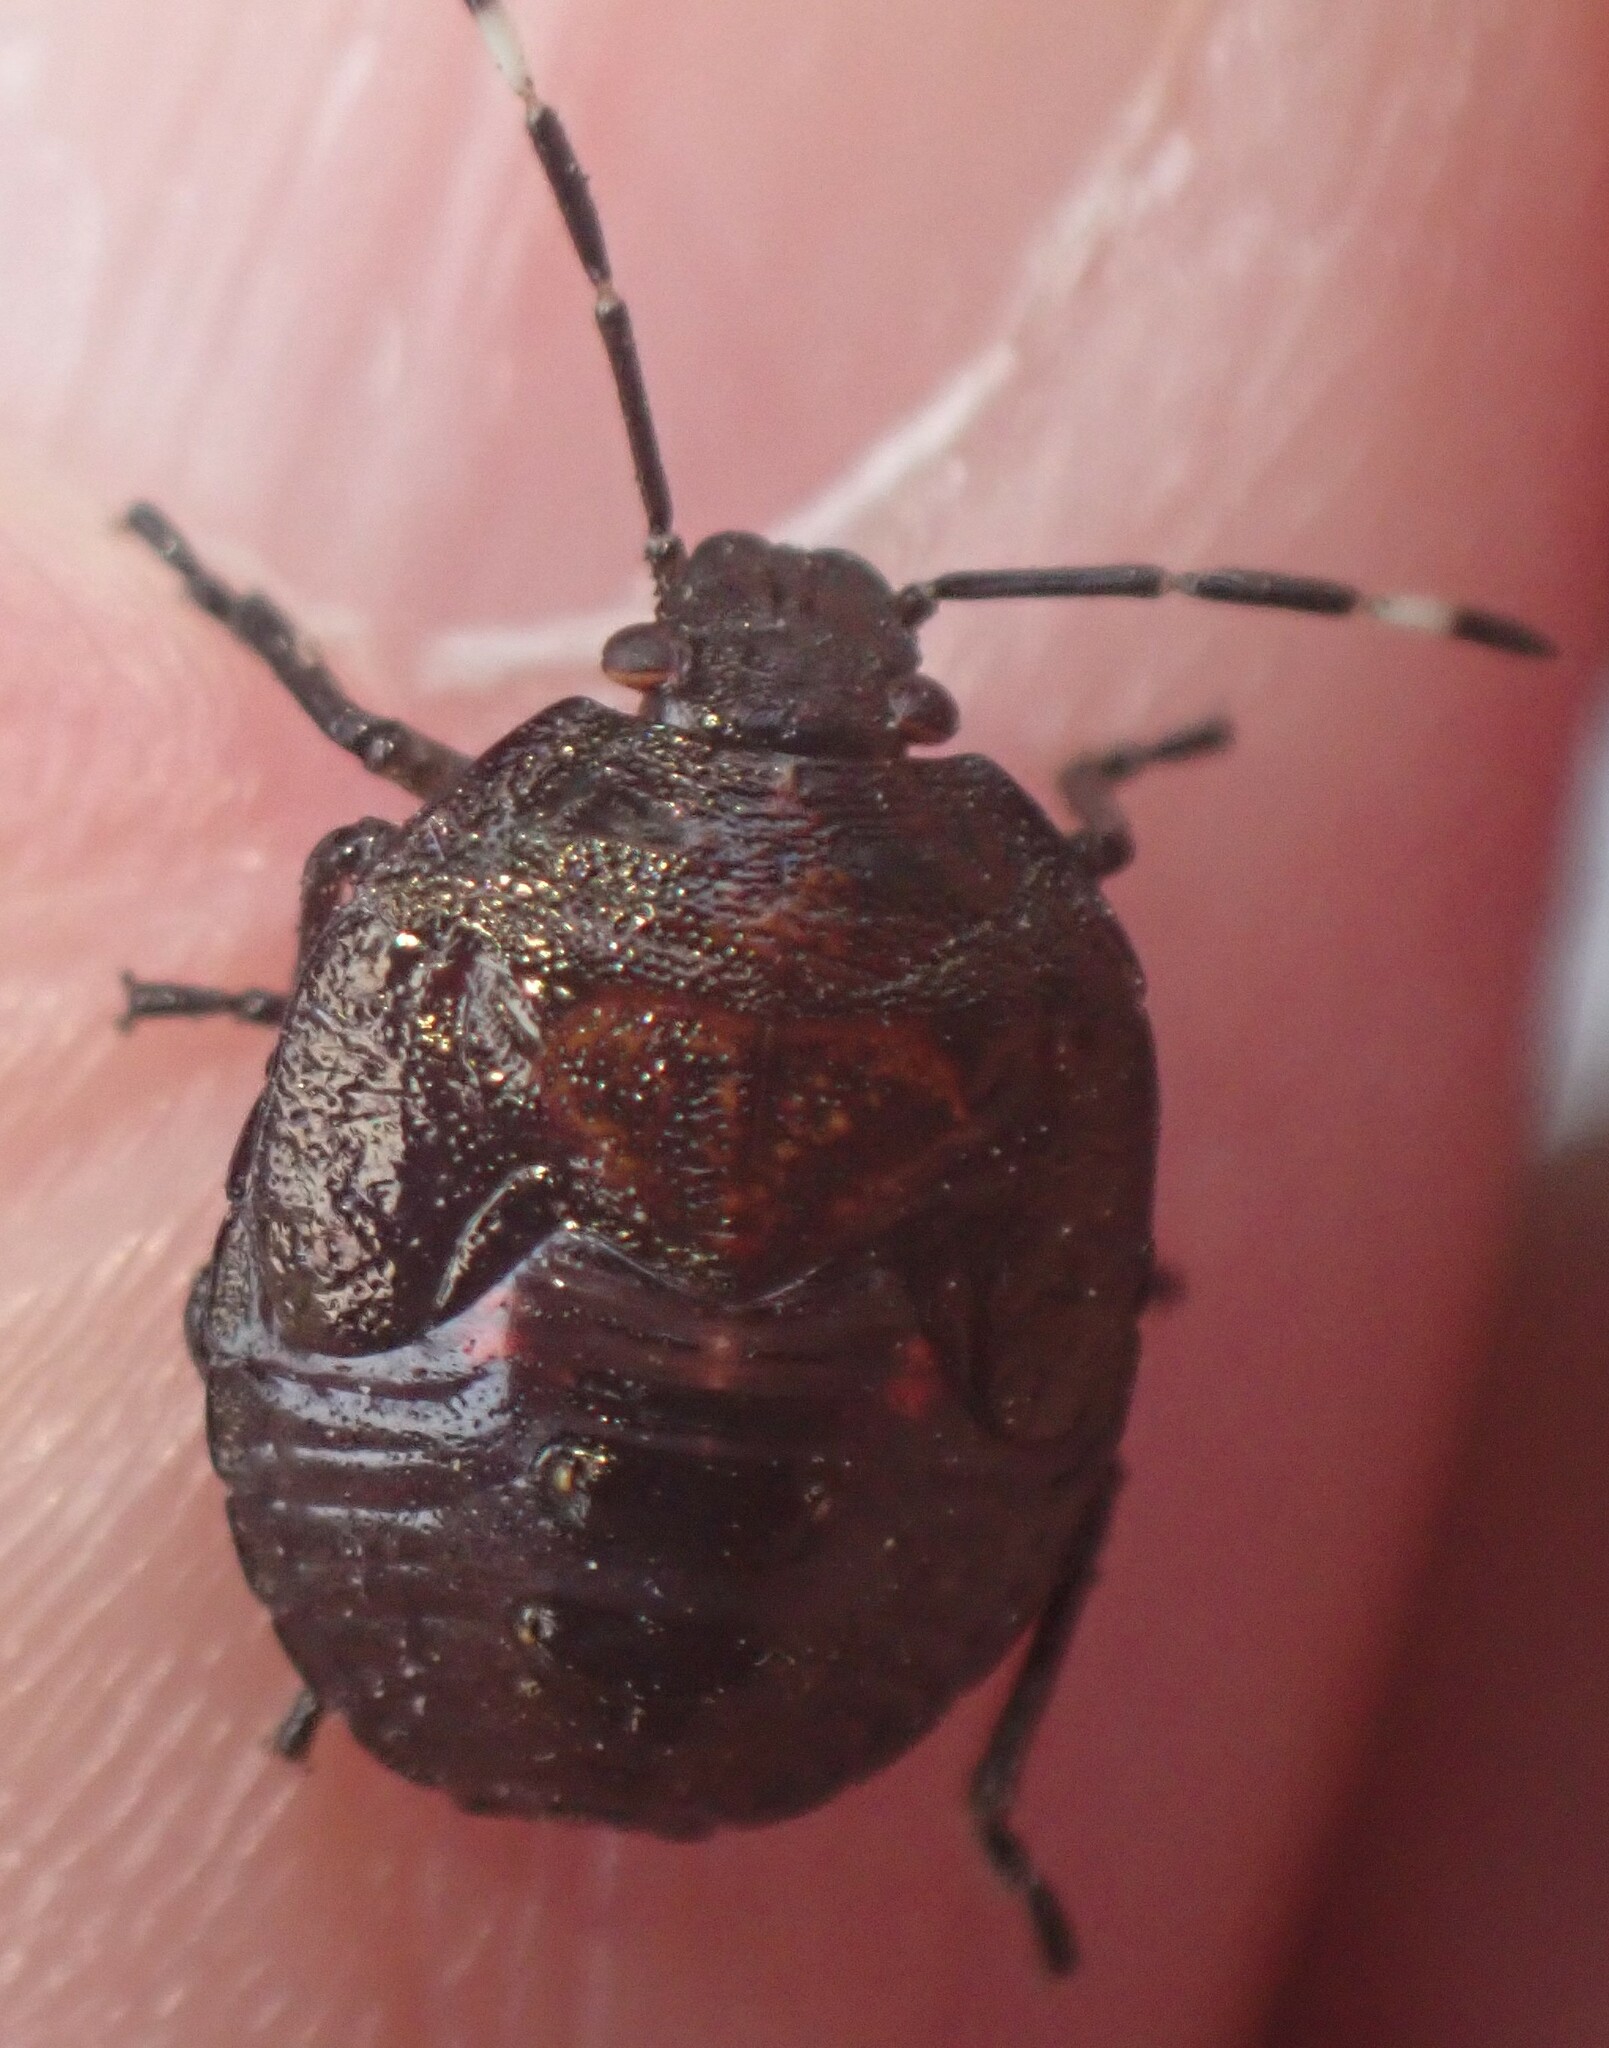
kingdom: Animalia
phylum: Arthropoda
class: Insecta
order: Hemiptera
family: Pentatomidae
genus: Monteithiella
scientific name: Monteithiella
